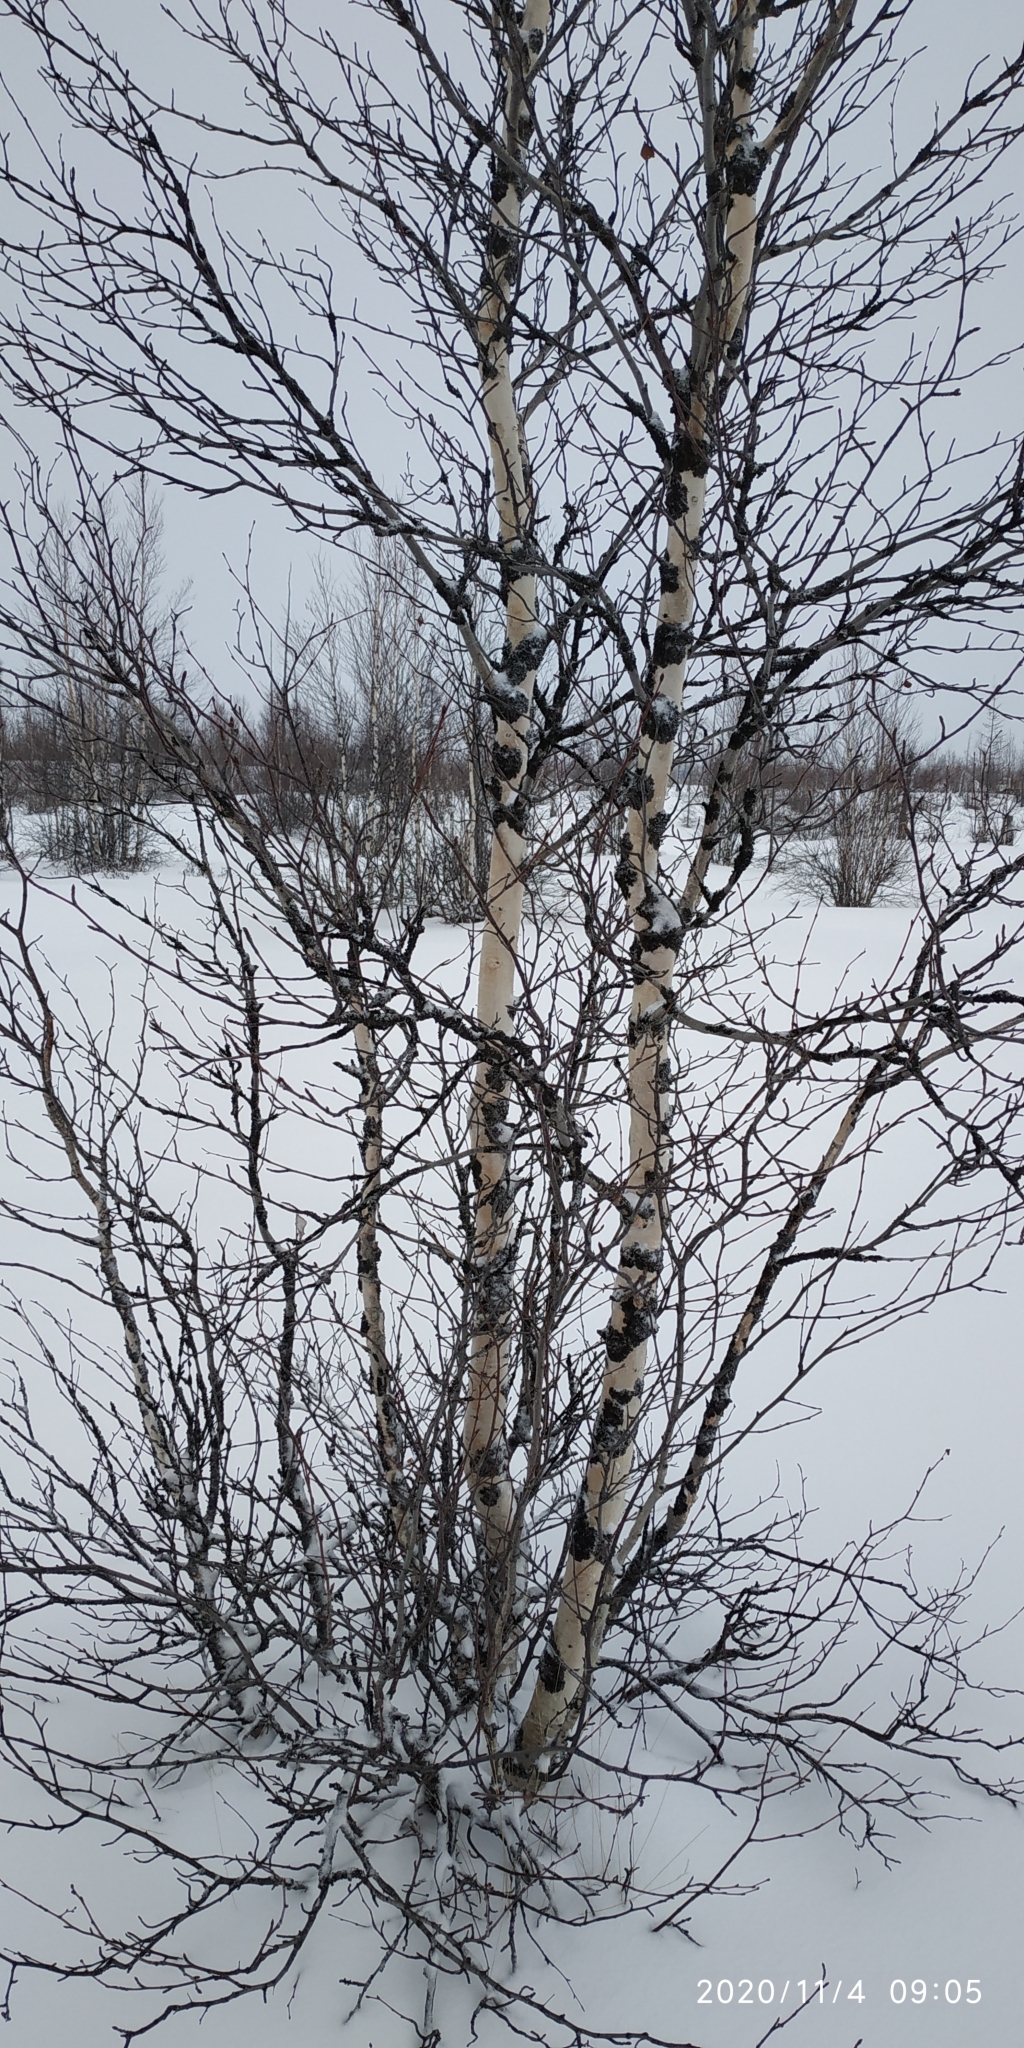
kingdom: Plantae
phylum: Tracheophyta
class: Magnoliopsida
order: Fagales
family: Betulaceae
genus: Betula
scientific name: Betula pubescens
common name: Downy birch
